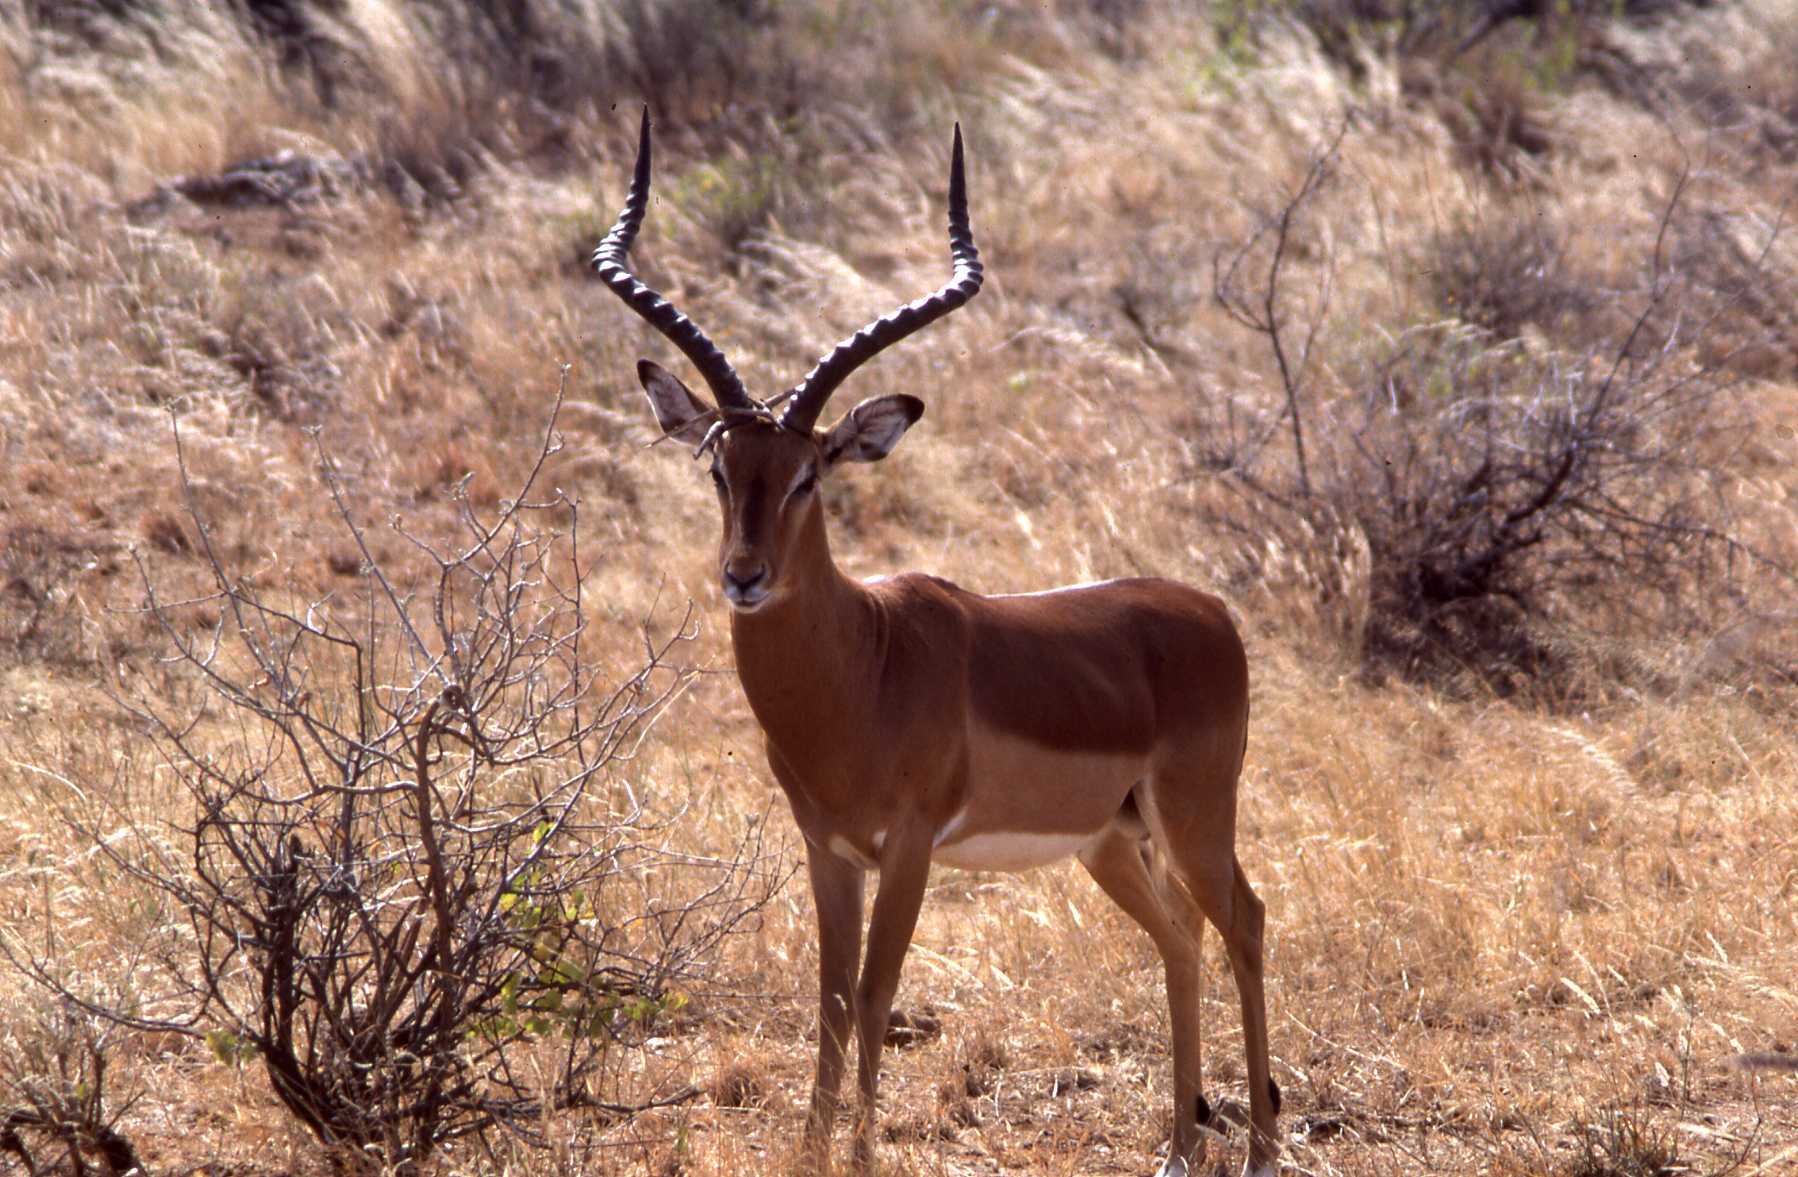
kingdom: Animalia
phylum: Chordata
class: Mammalia
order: Artiodactyla
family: Bovidae
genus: Aepyceros
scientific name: Aepyceros melampus
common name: Impala
